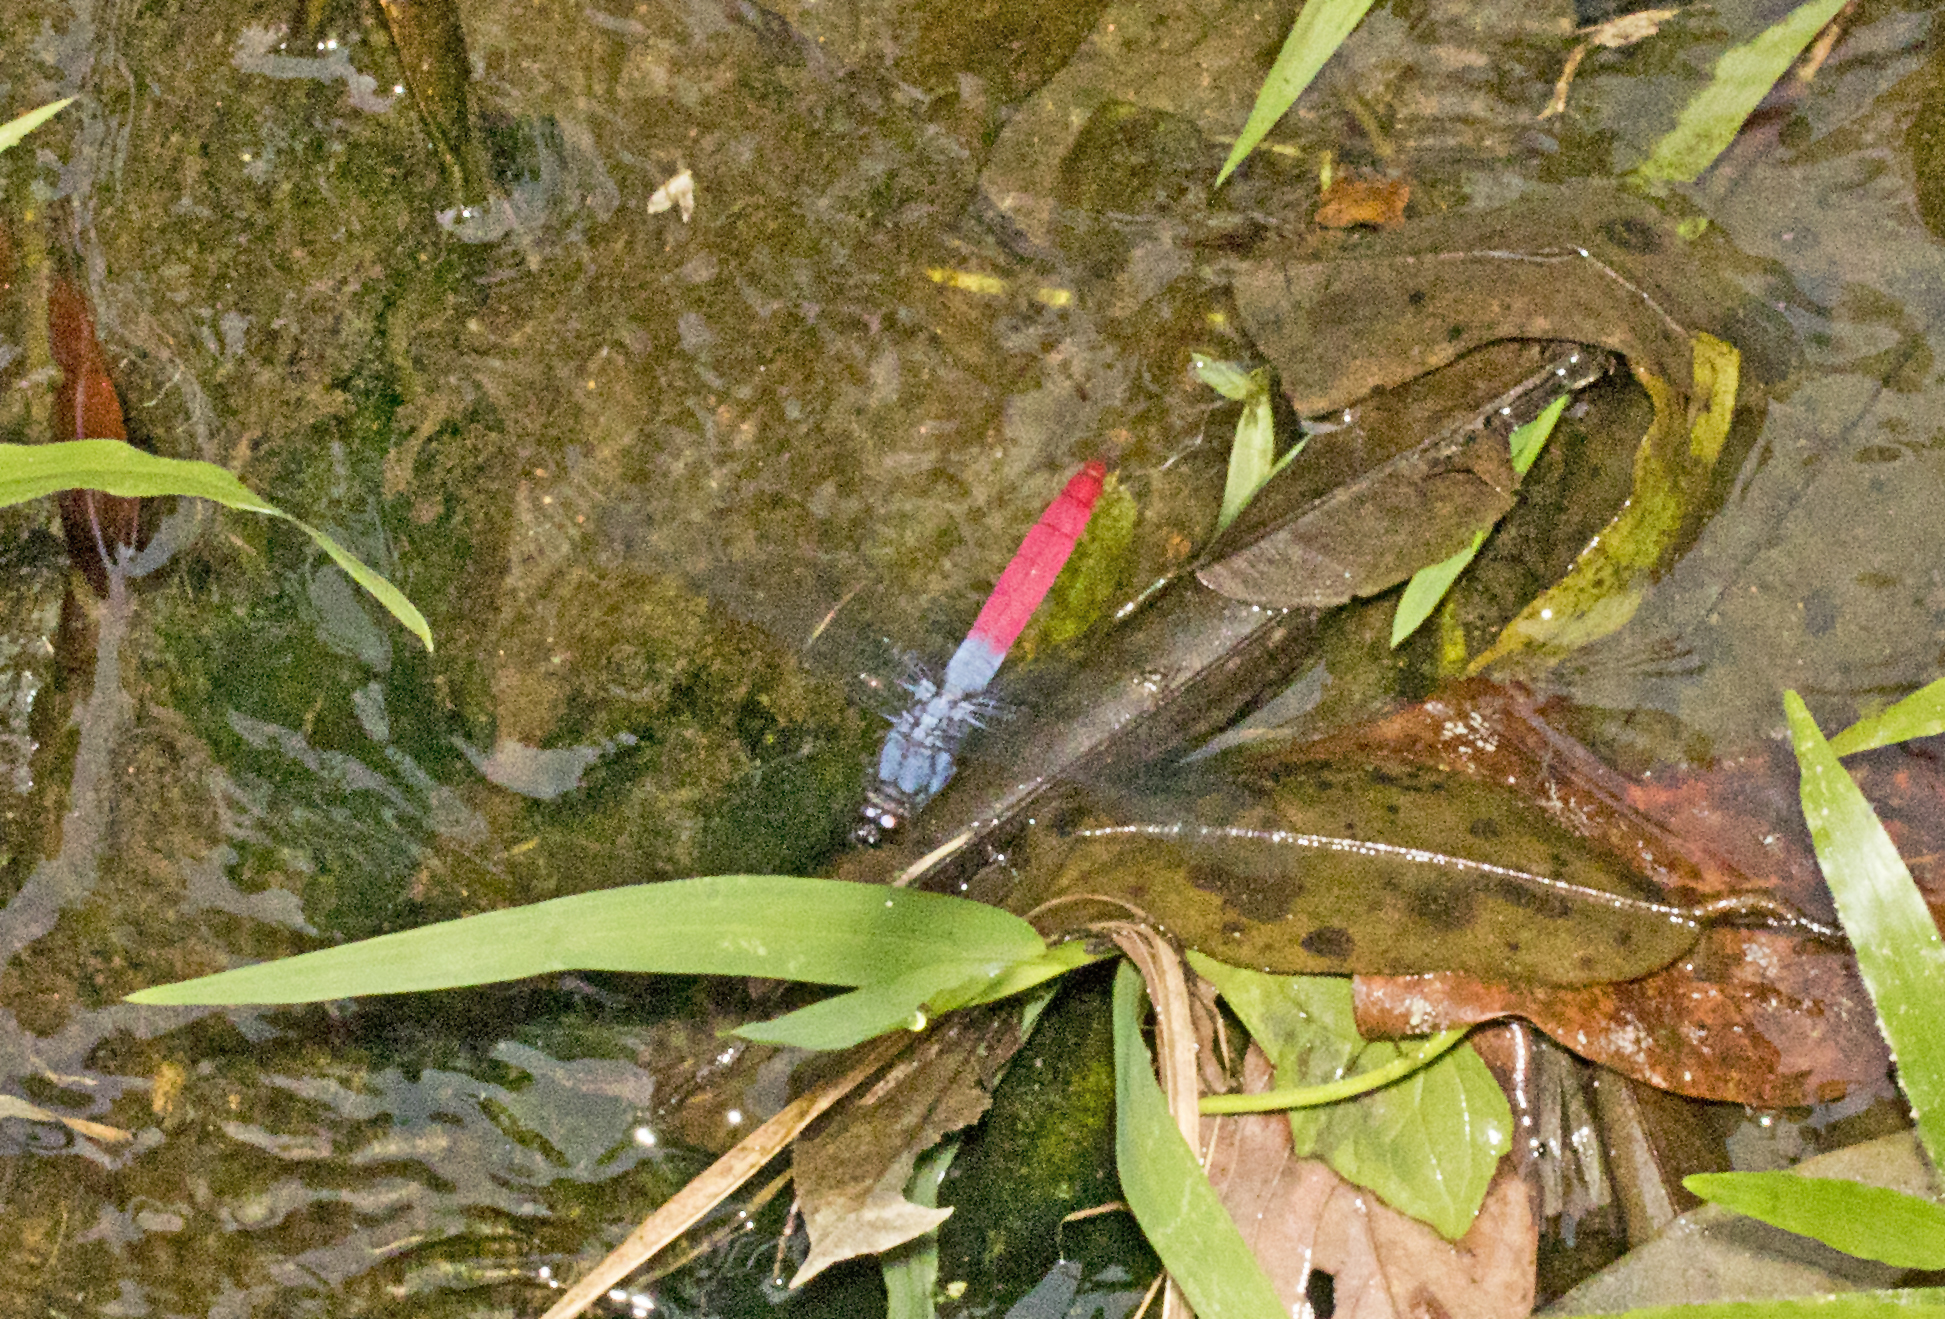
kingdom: Animalia
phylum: Arthropoda
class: Insecta
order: Odonata
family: Libellulidae
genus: Orthetrum
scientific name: Orthetrum schneideri
